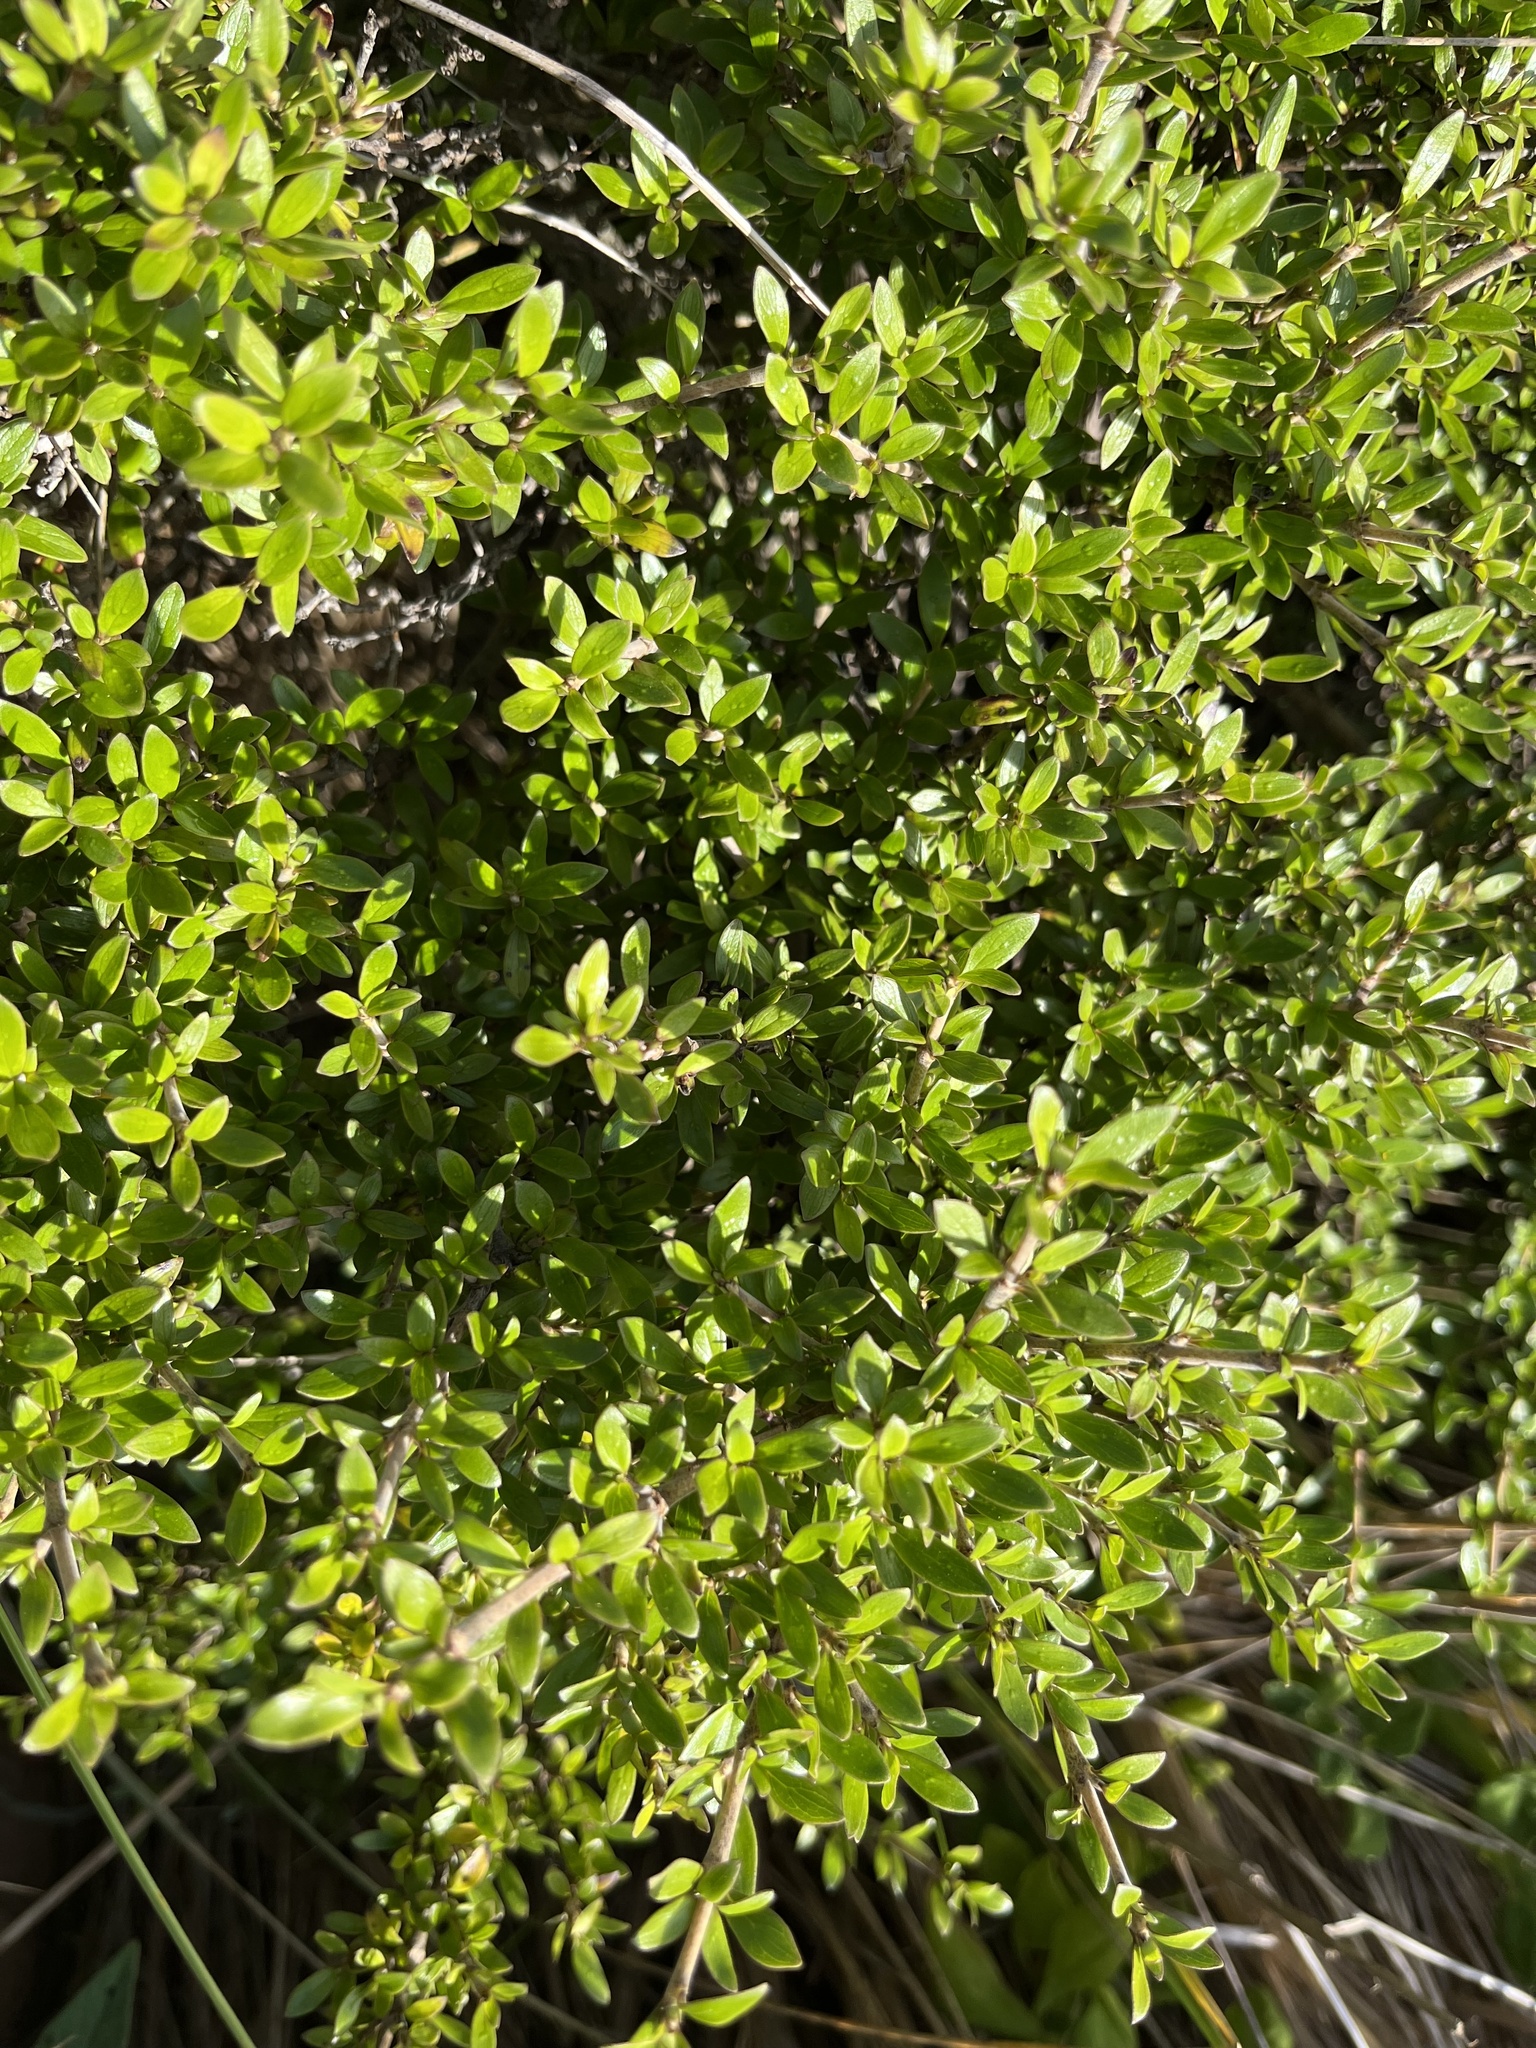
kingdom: Plantae
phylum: Tracheophyta
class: Magnoliopsida
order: Gentianales
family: Rubiaceae
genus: Coprosma
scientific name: Coprosma chathamica
